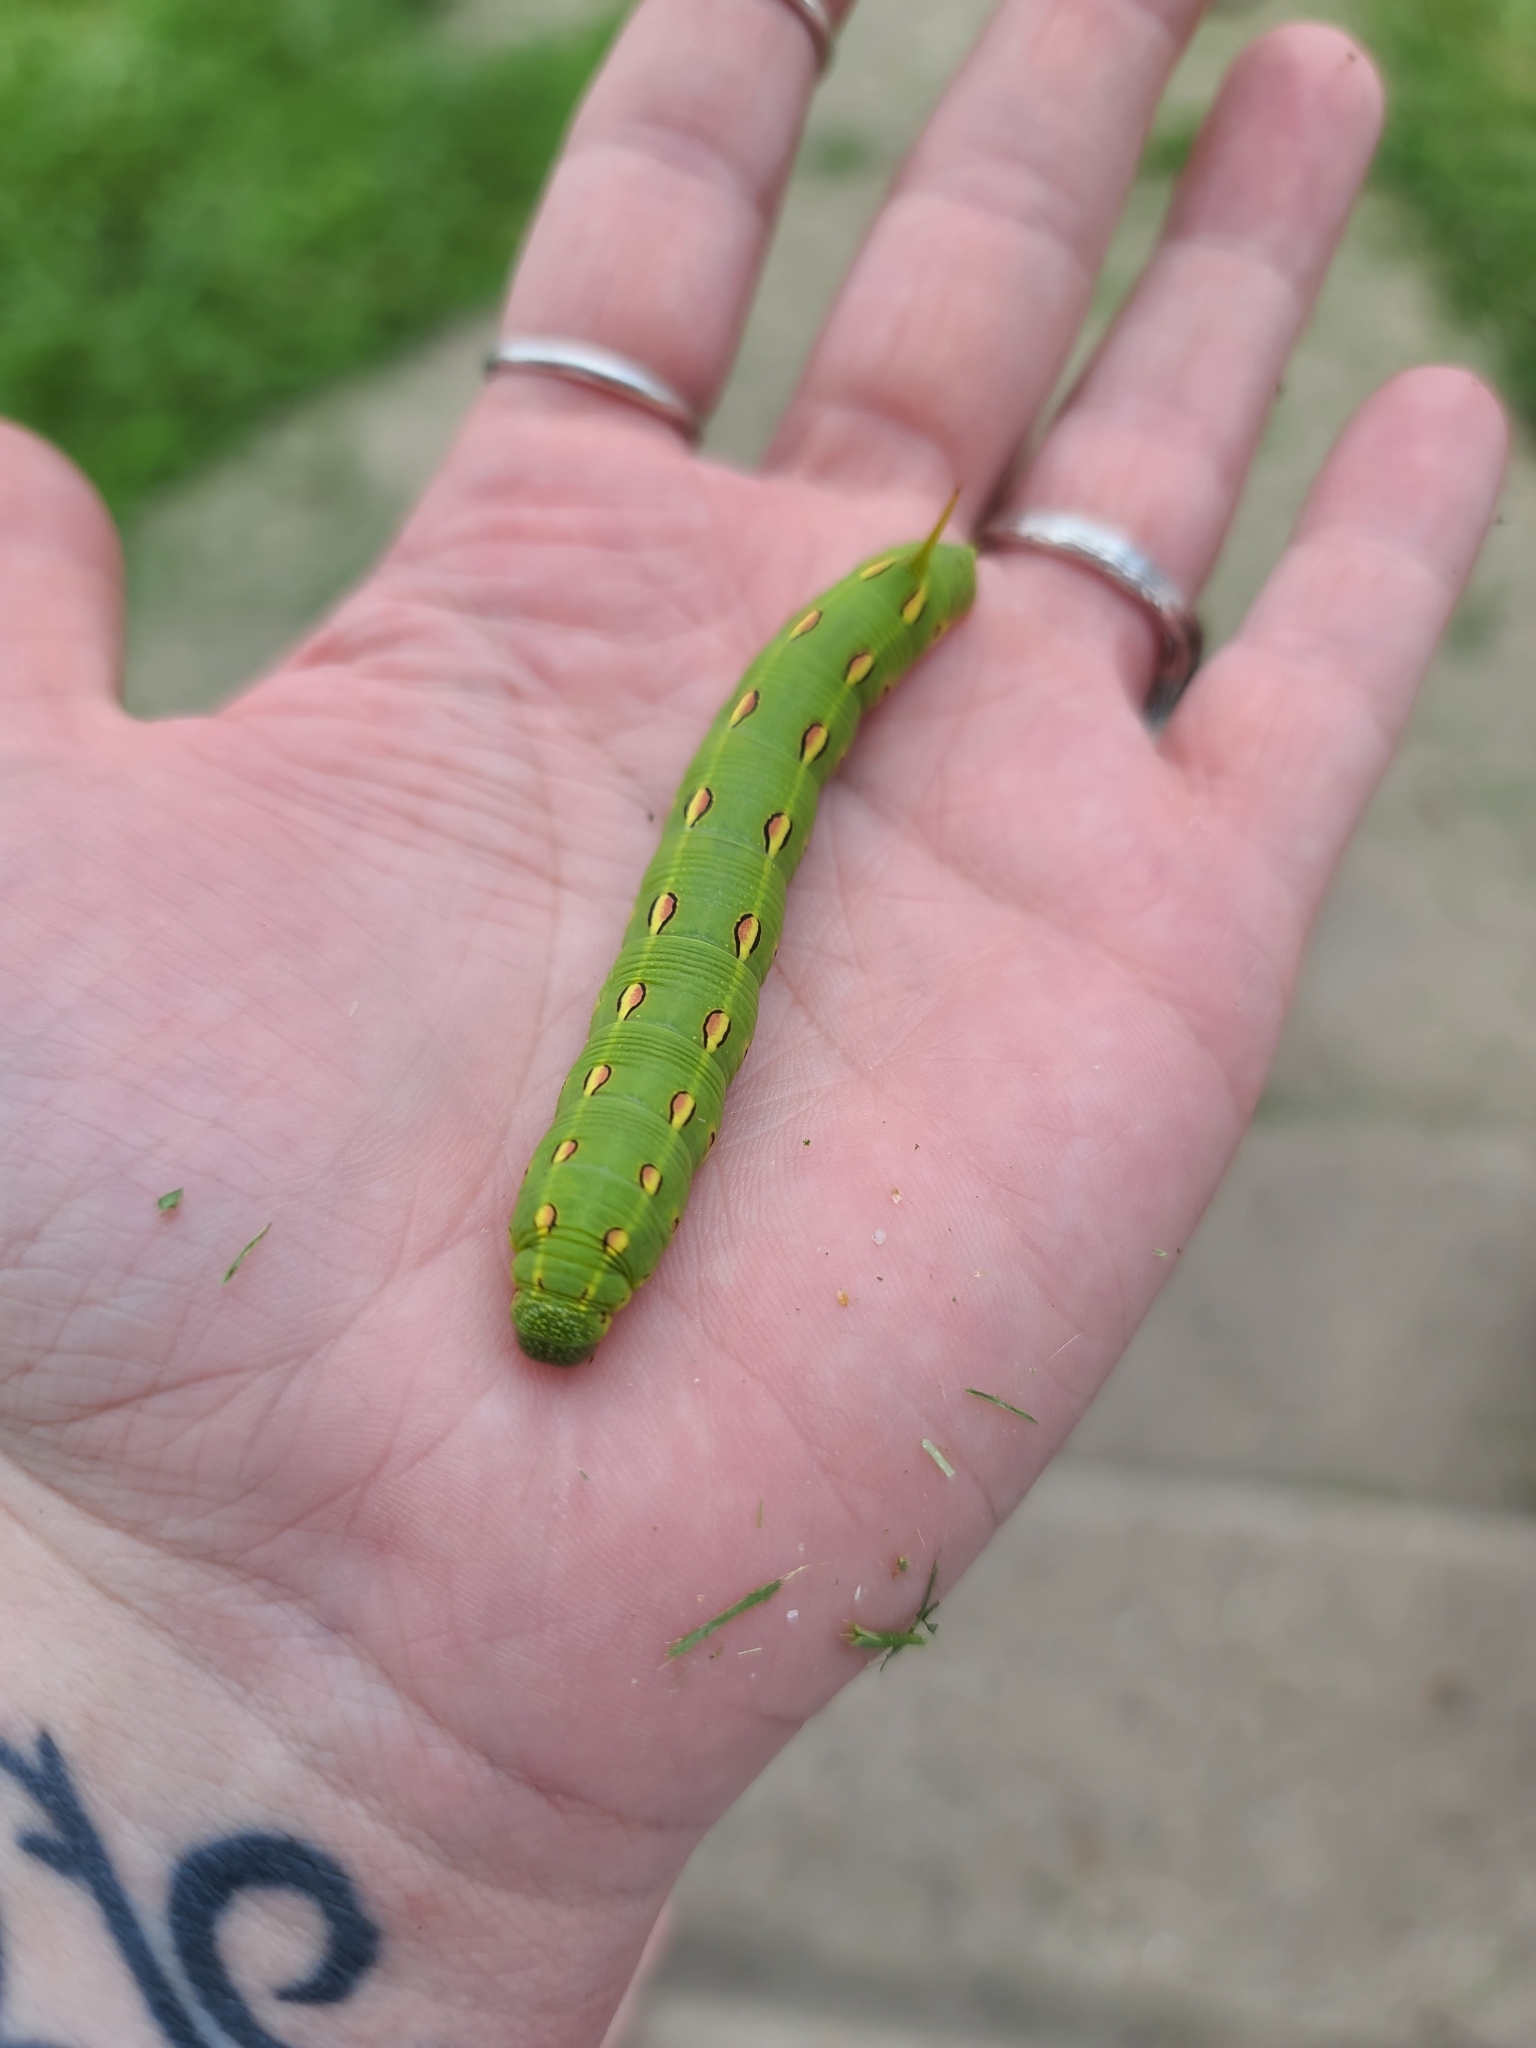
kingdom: Animalia
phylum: Arthropoda
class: Insecta
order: Lepidoptera
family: Sphingidae
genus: Hyles
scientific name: Hyles lineata
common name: White-lined sphinx
